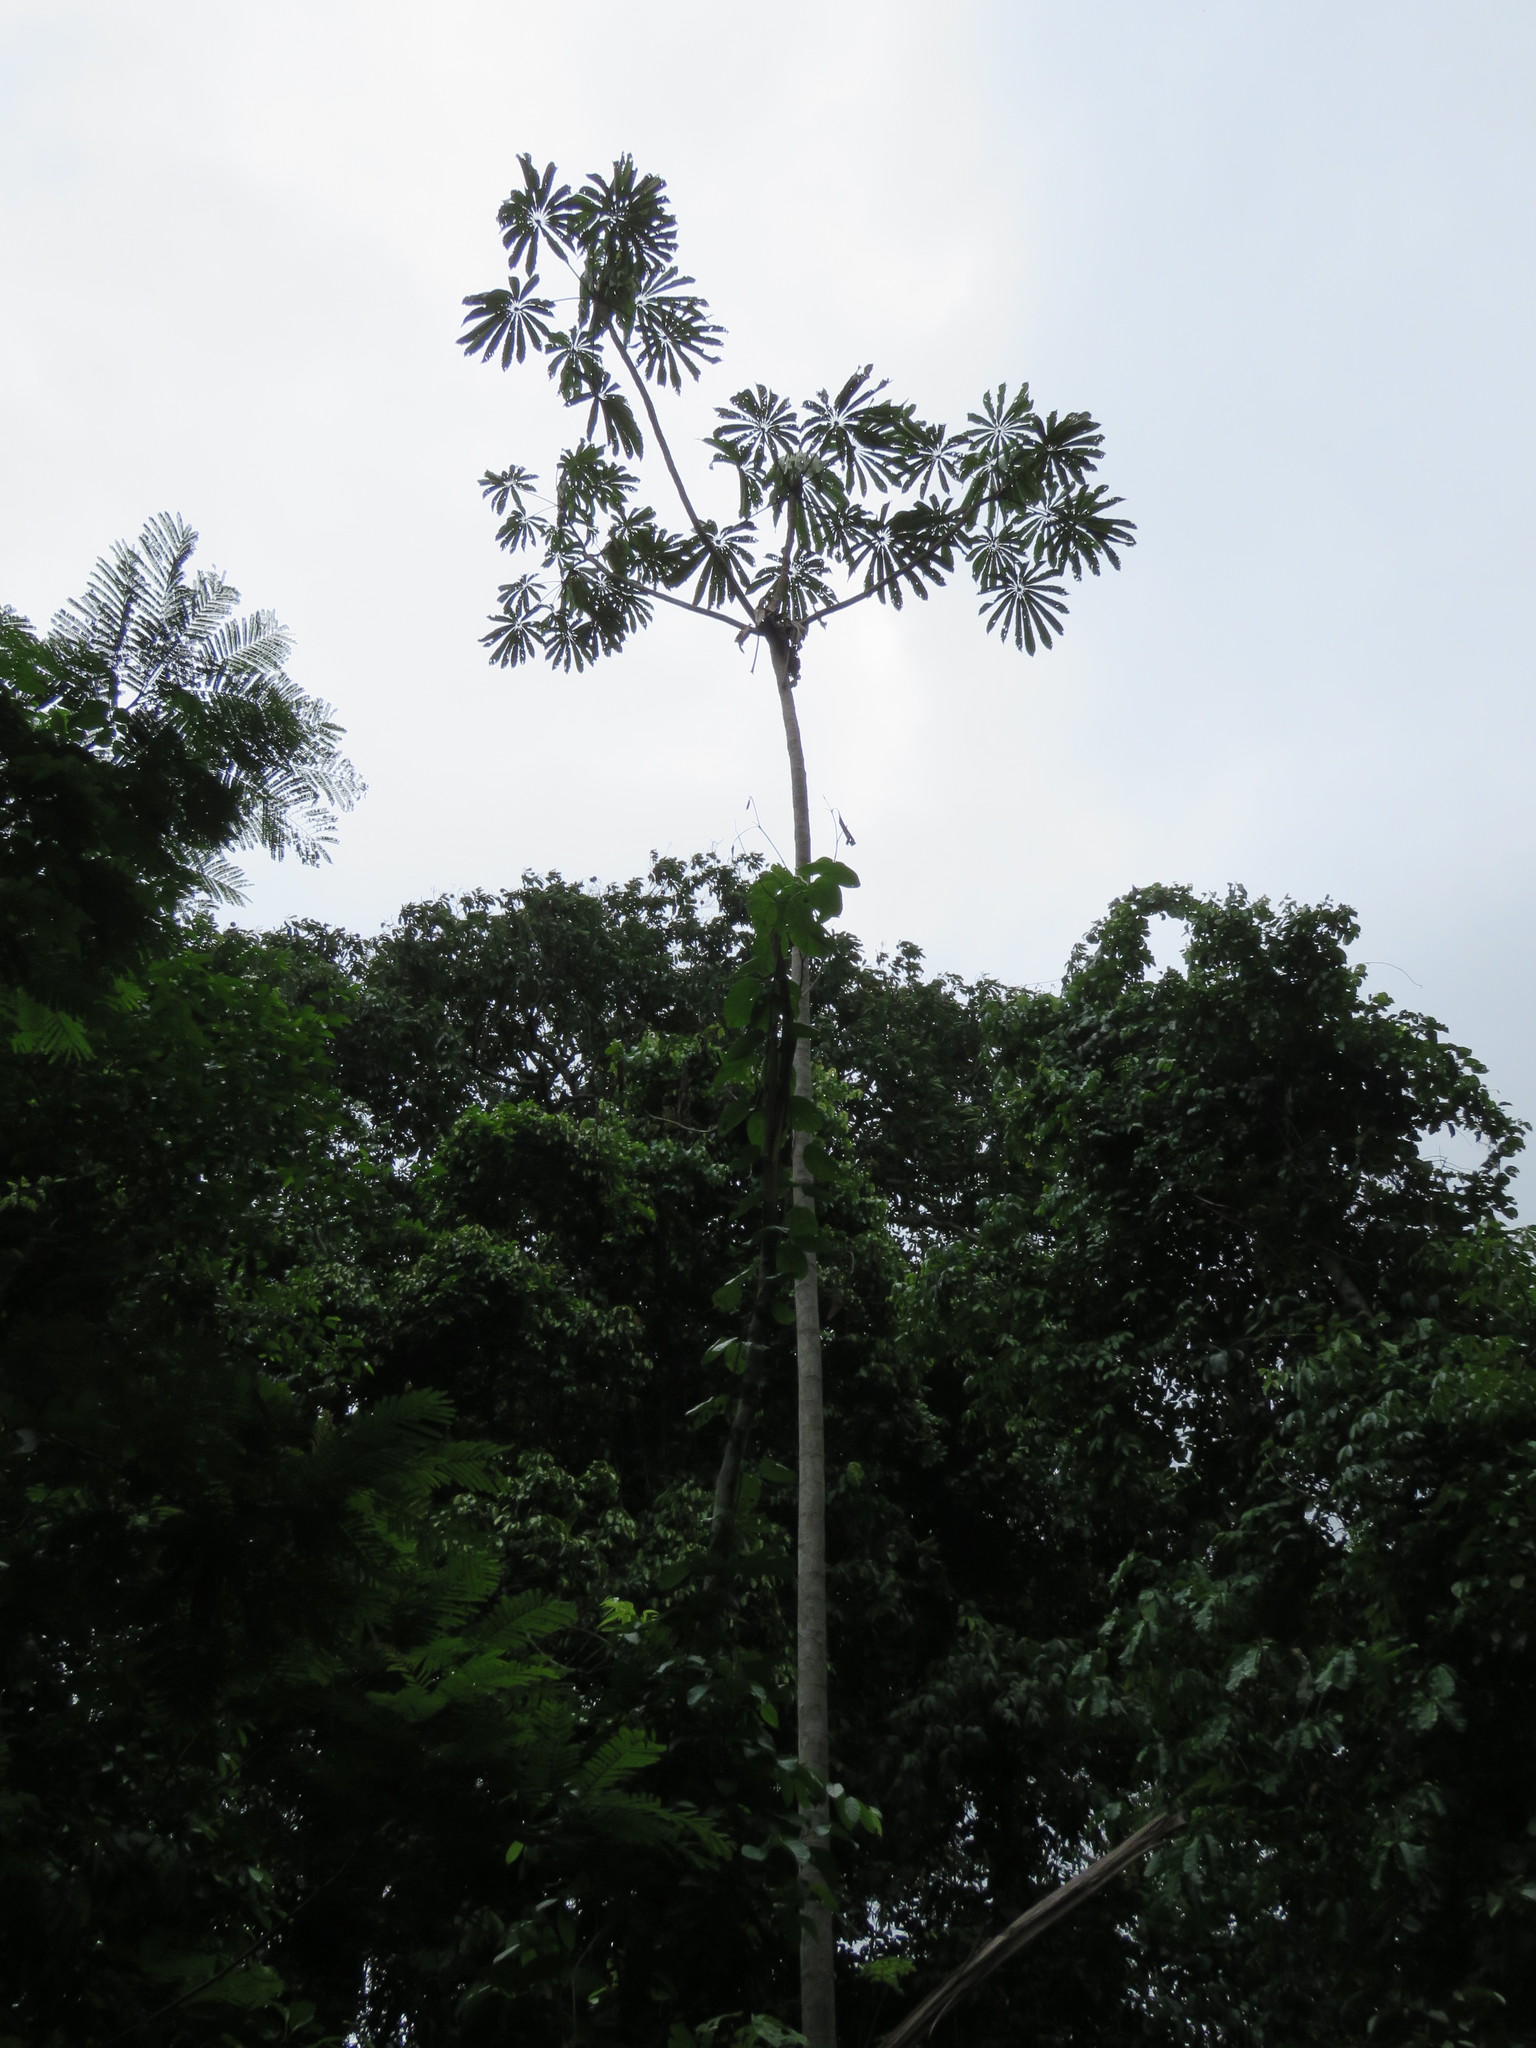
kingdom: Plantae
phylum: Tracheophyta
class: Magnoliopsida
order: Rosales
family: Urticaceae
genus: Cecropia
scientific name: Cecropia sciadophylla
